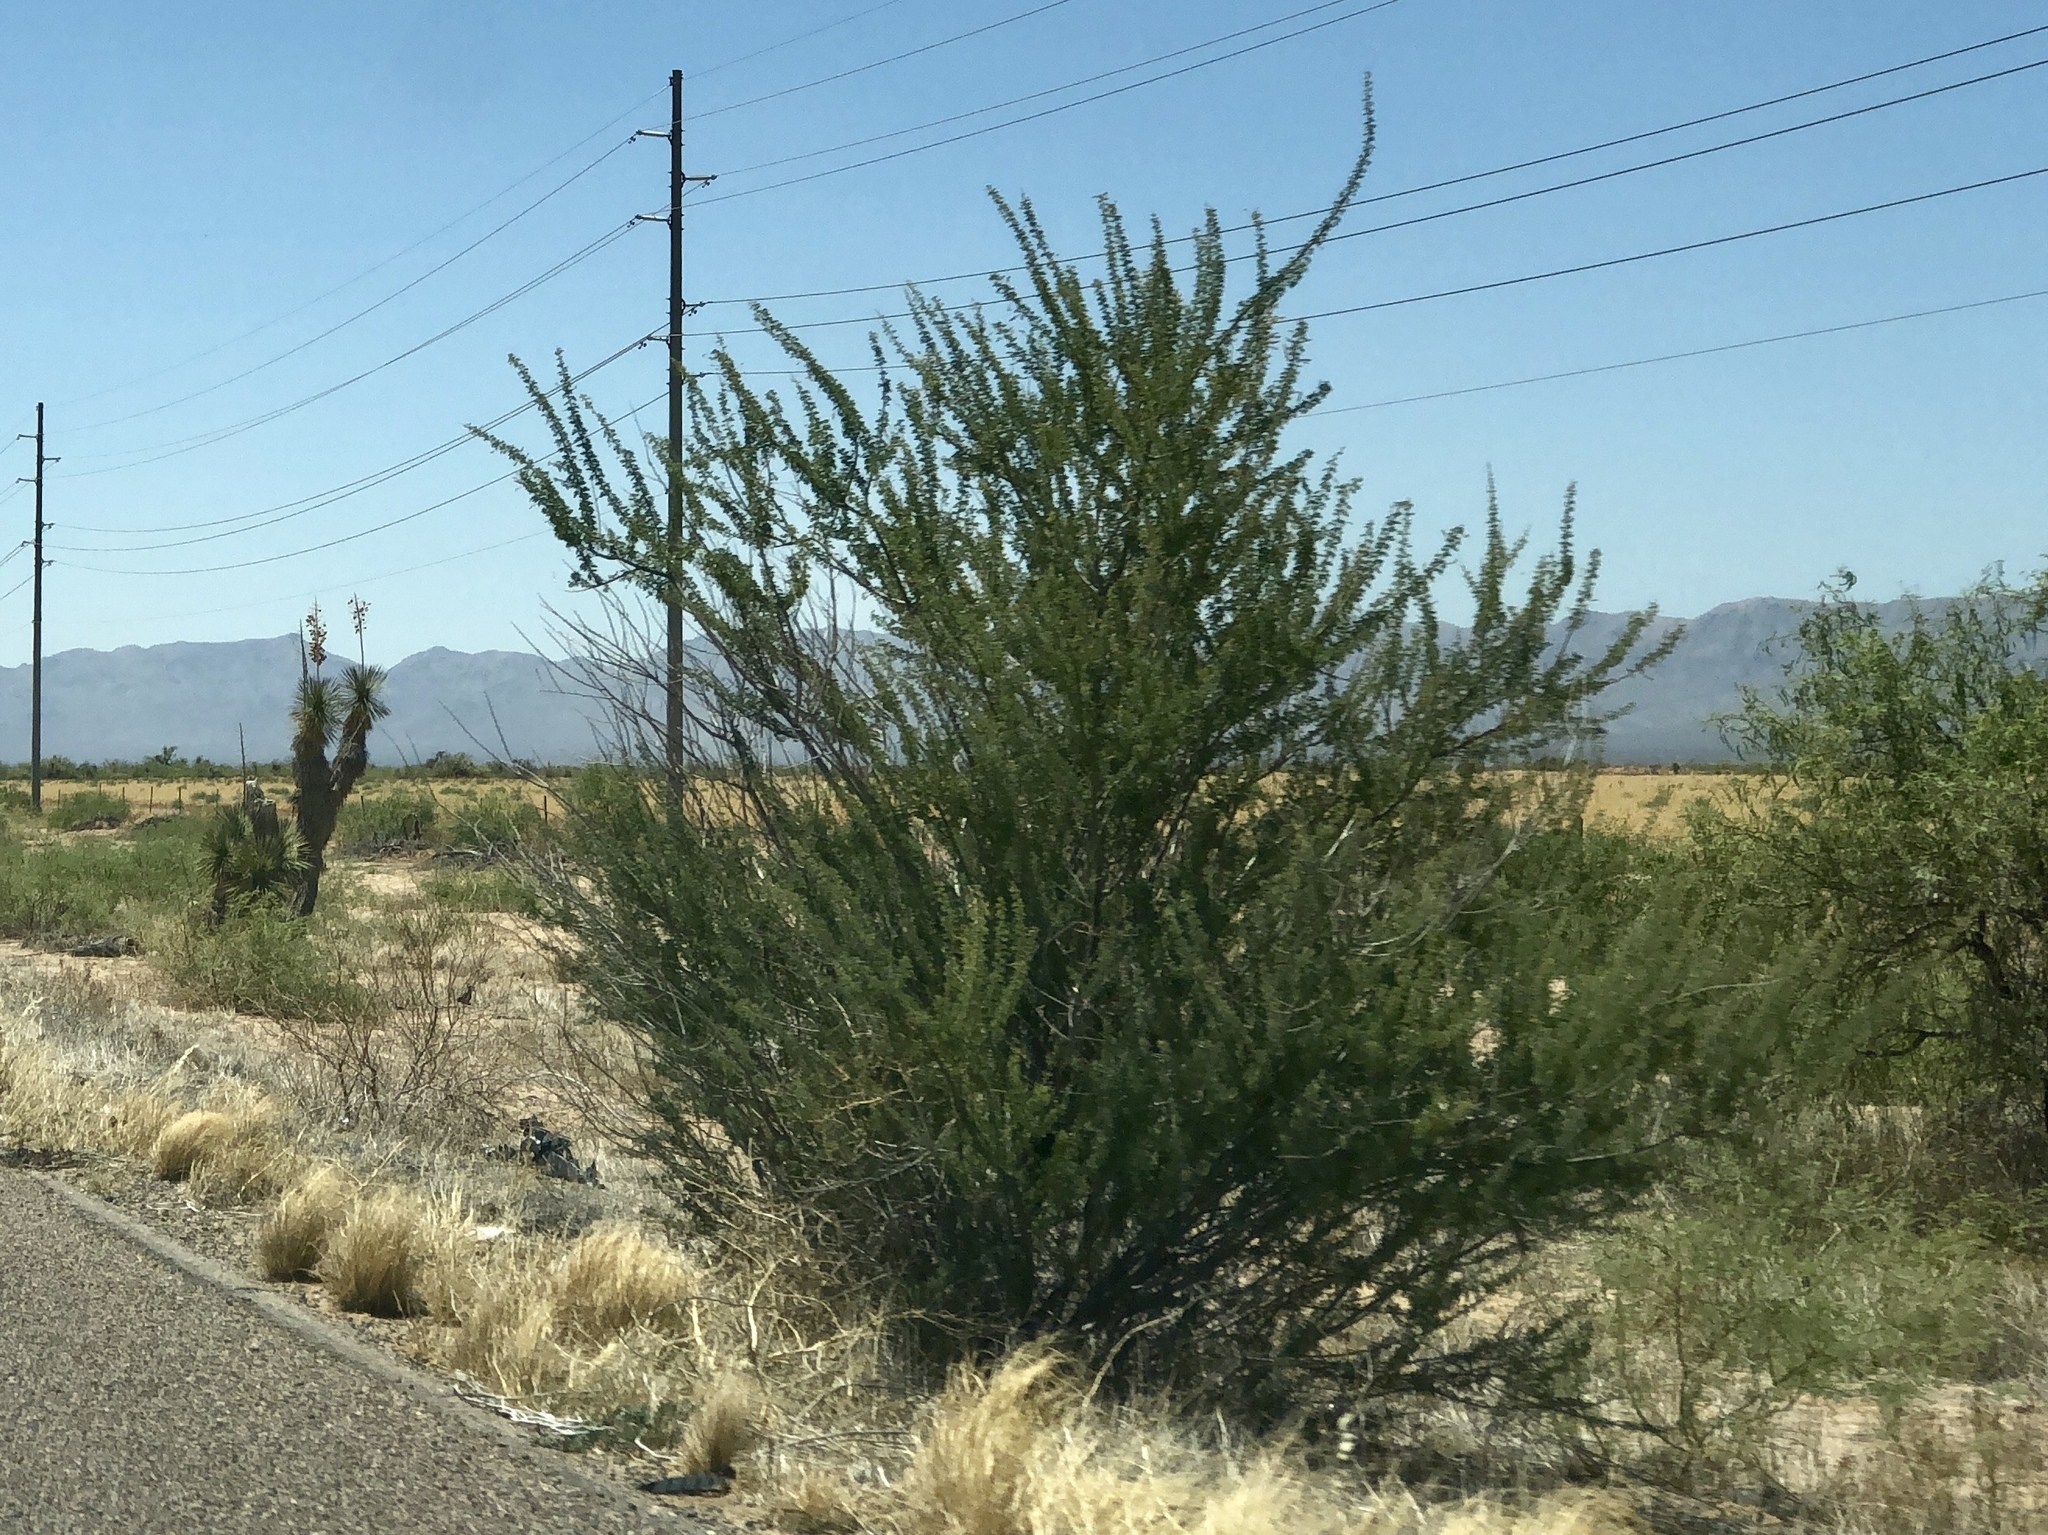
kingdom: Plantae
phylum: Tracheophyta
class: Magnoliopsida
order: Fabales
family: Fabaceae
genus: Senegalia
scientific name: Senegalia greggii
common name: Texas-mimosa
